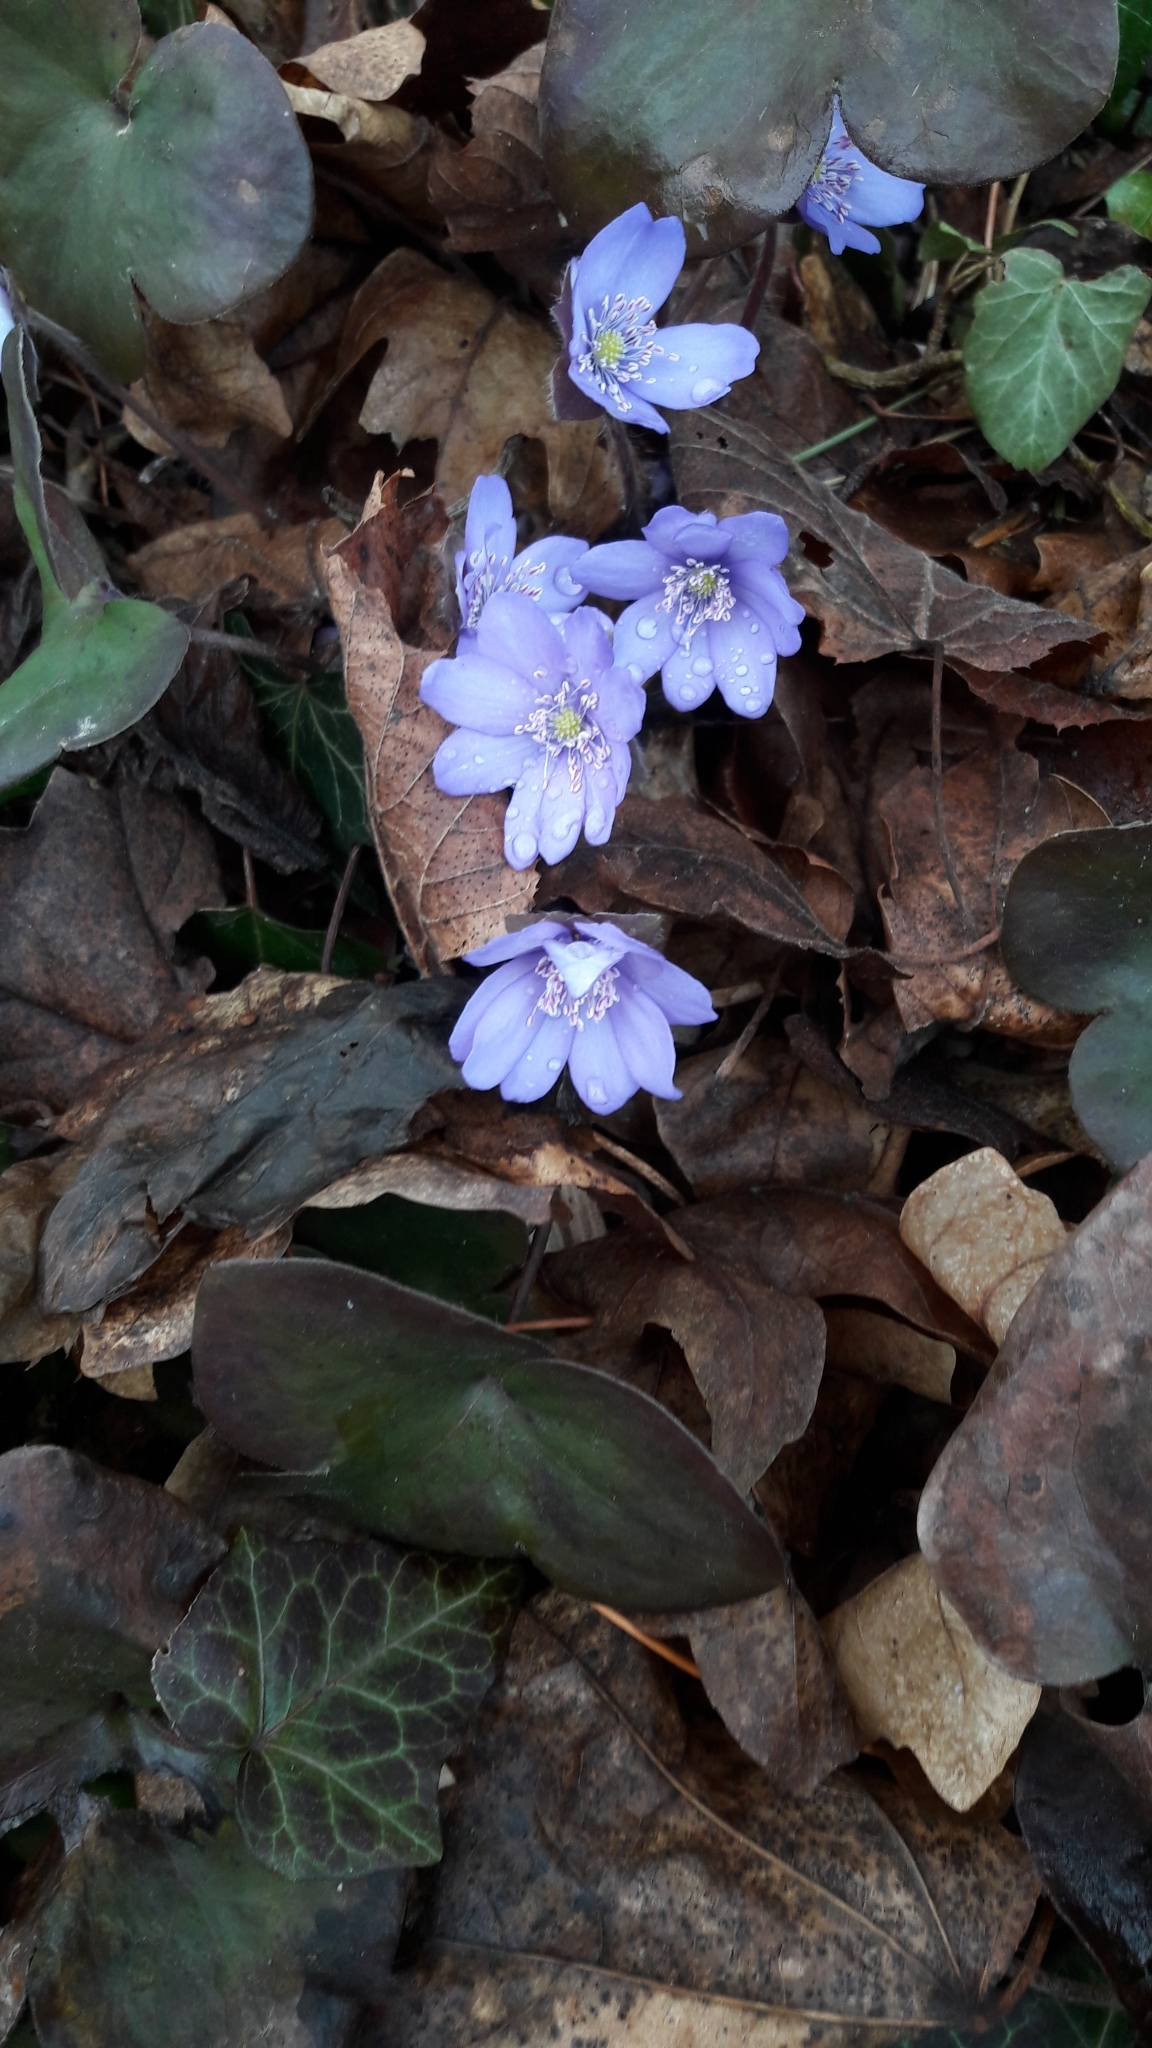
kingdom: Plantae
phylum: Tracheophyta
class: Magnoliopsida
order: Ranunculales
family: Ranunculaceae
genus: Hepatica
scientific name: Hepatica nobilis
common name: Liverleaf
